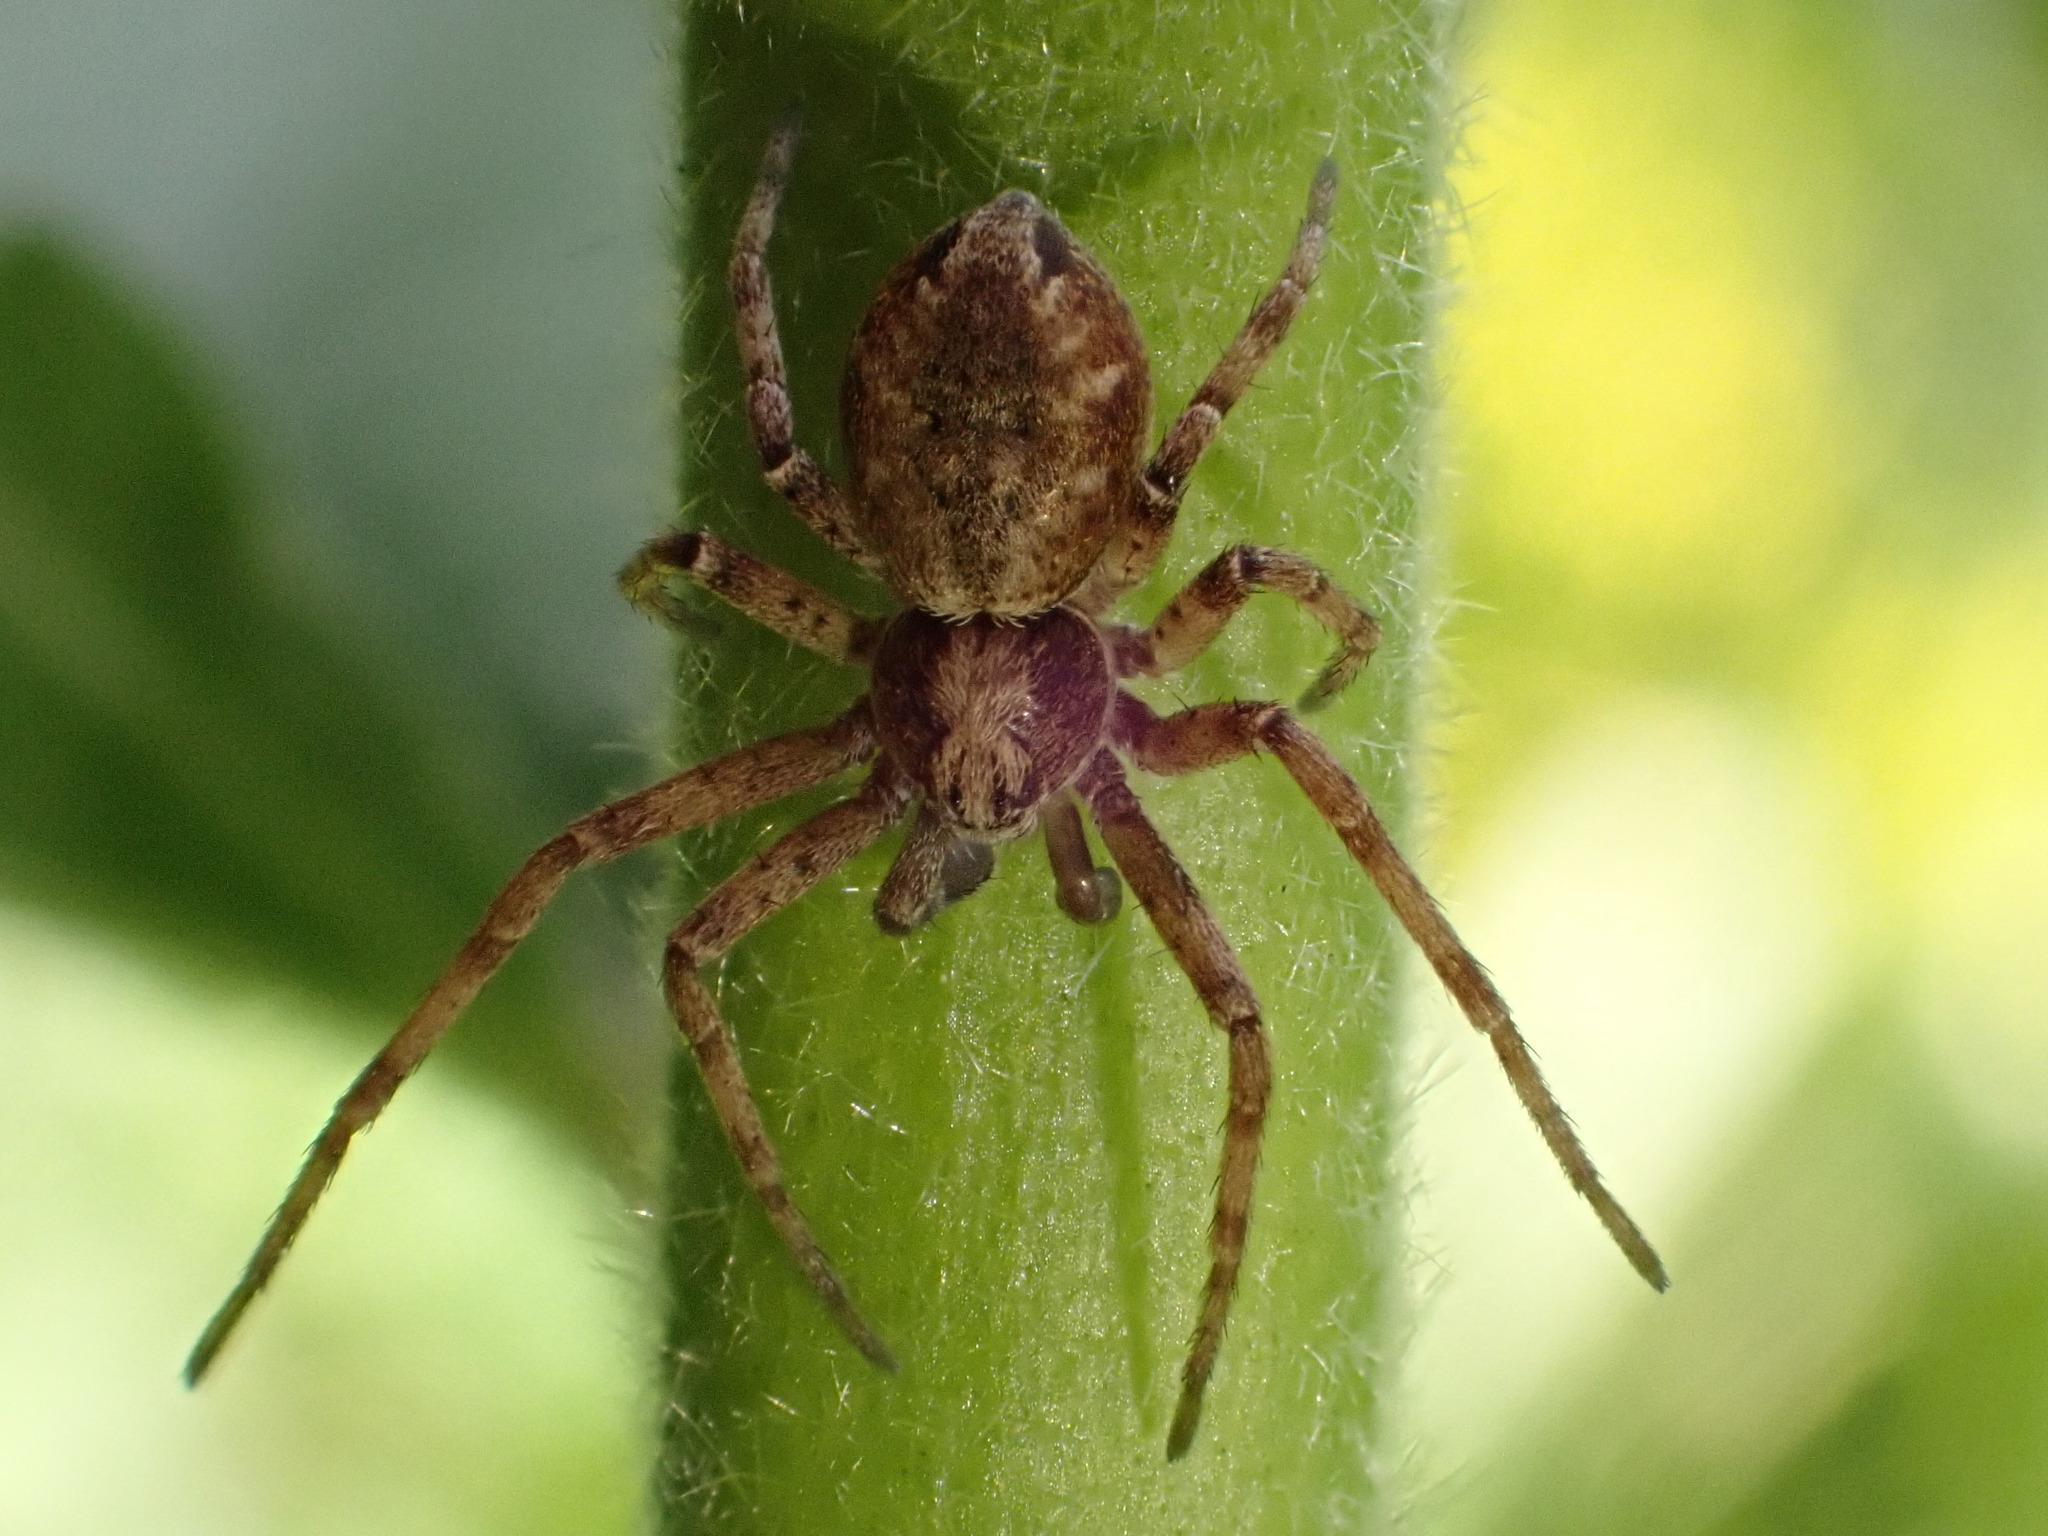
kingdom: Animalia
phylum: Arthropoda
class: Arachnida
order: Araneae
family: Philodromidae
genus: Philodromus
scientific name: Philodromus
